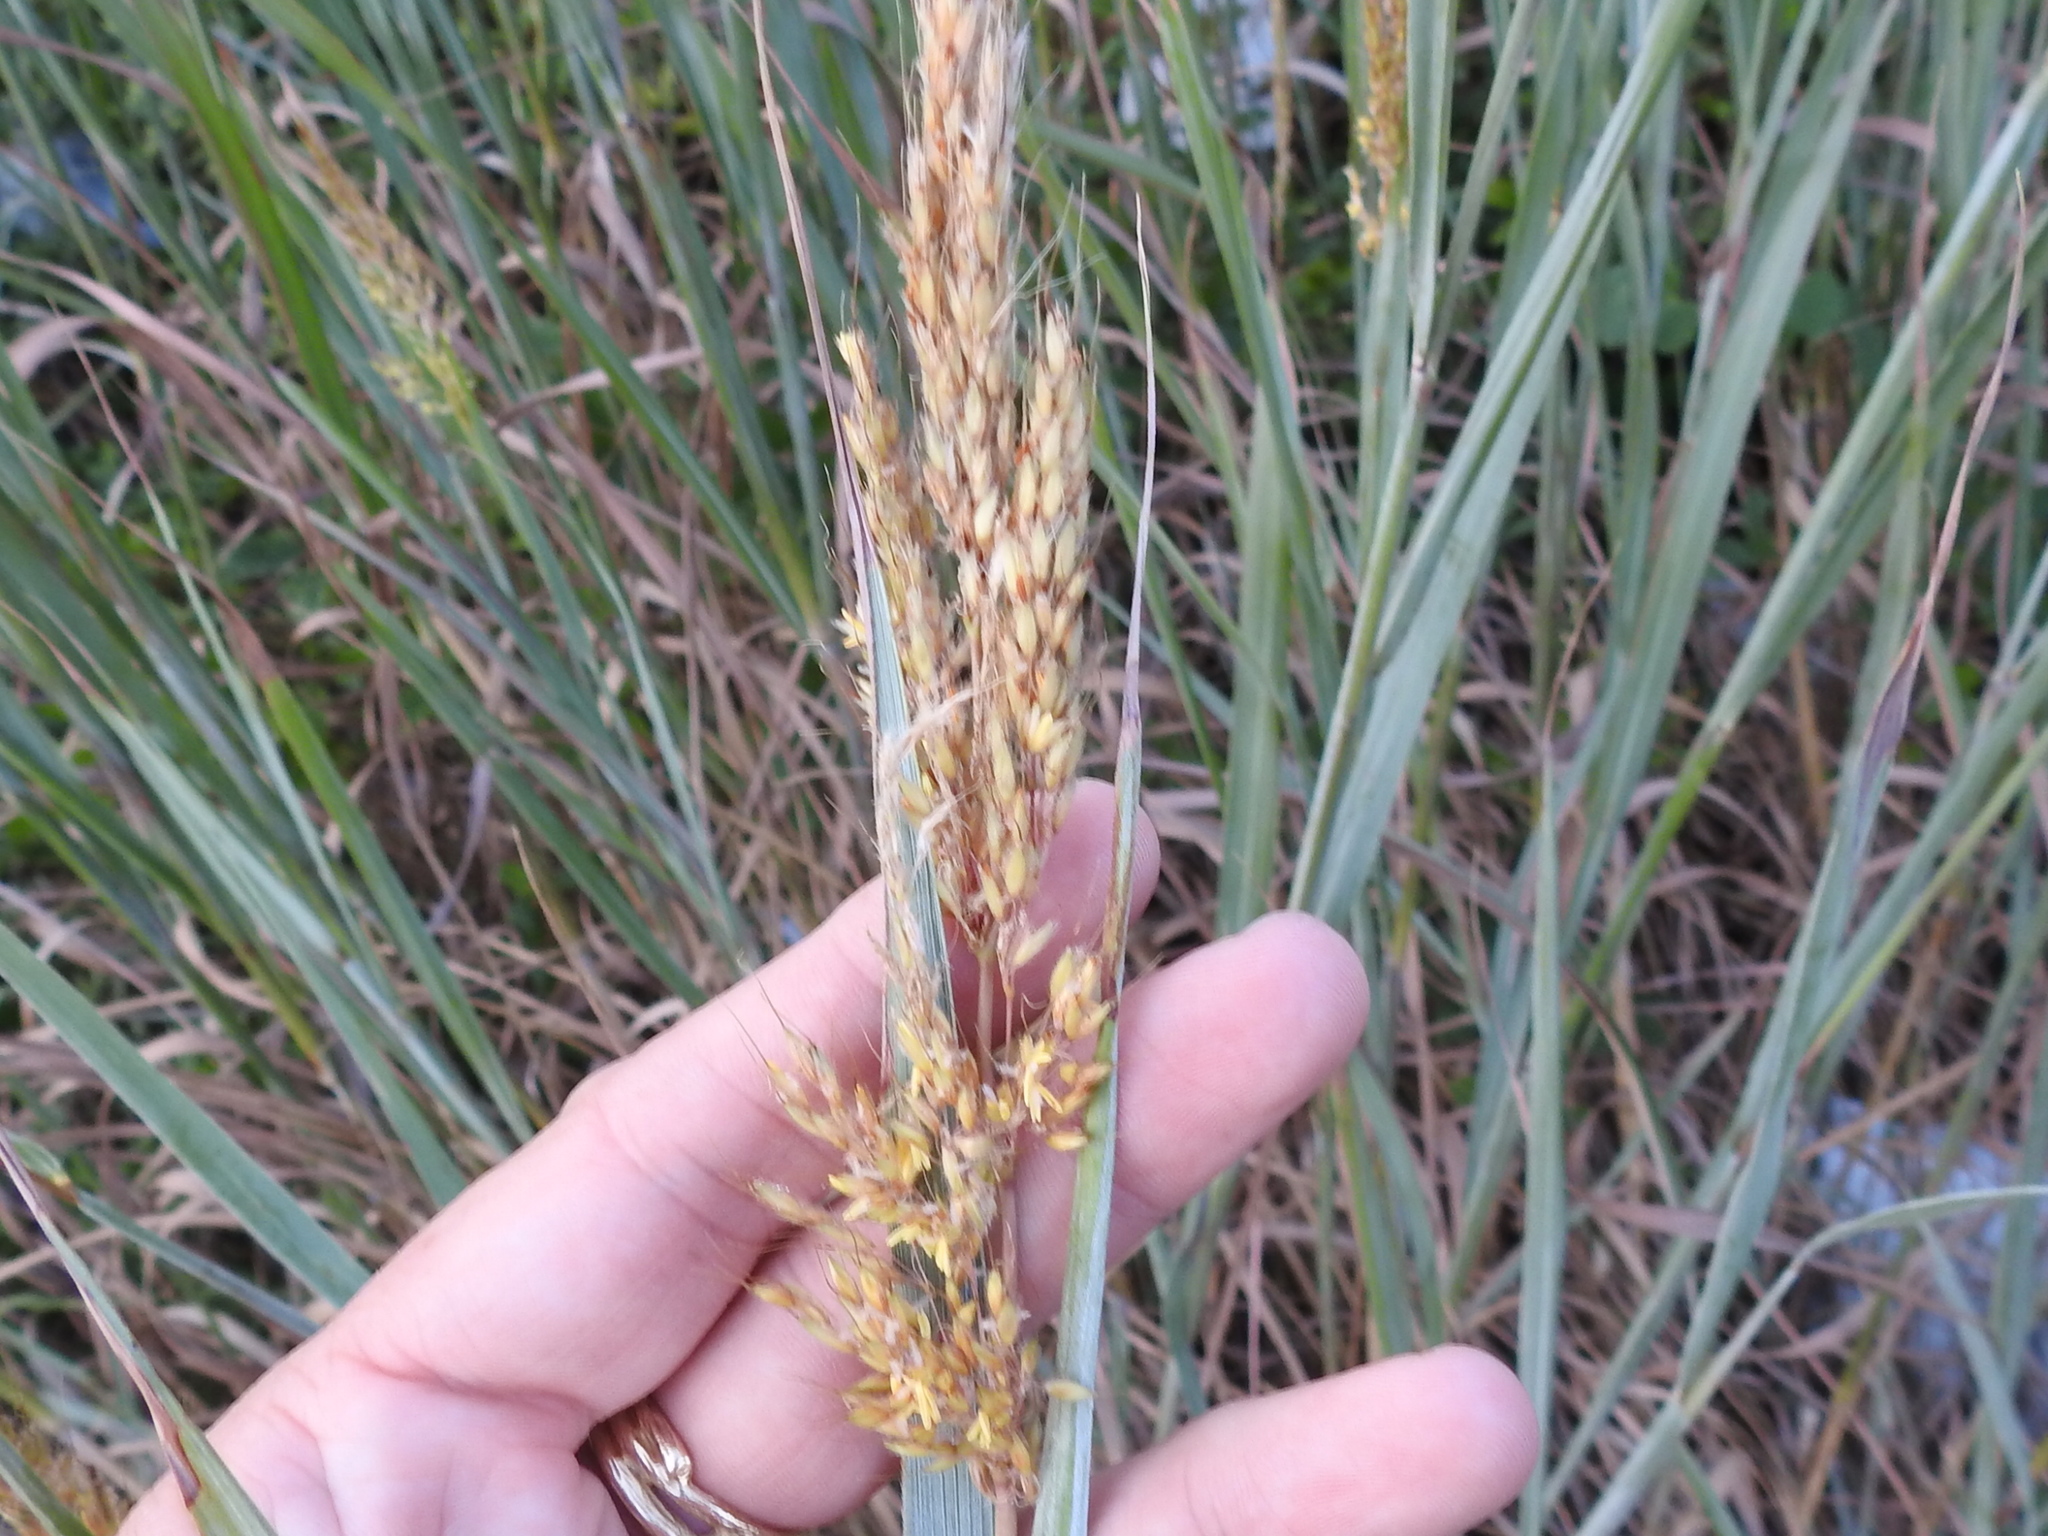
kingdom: Plantae
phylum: Tracheophyta
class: Liliopsida
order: Poales
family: Poaceae
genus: Sorghastrum
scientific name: Sorghastrum nutans
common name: Indian grass
